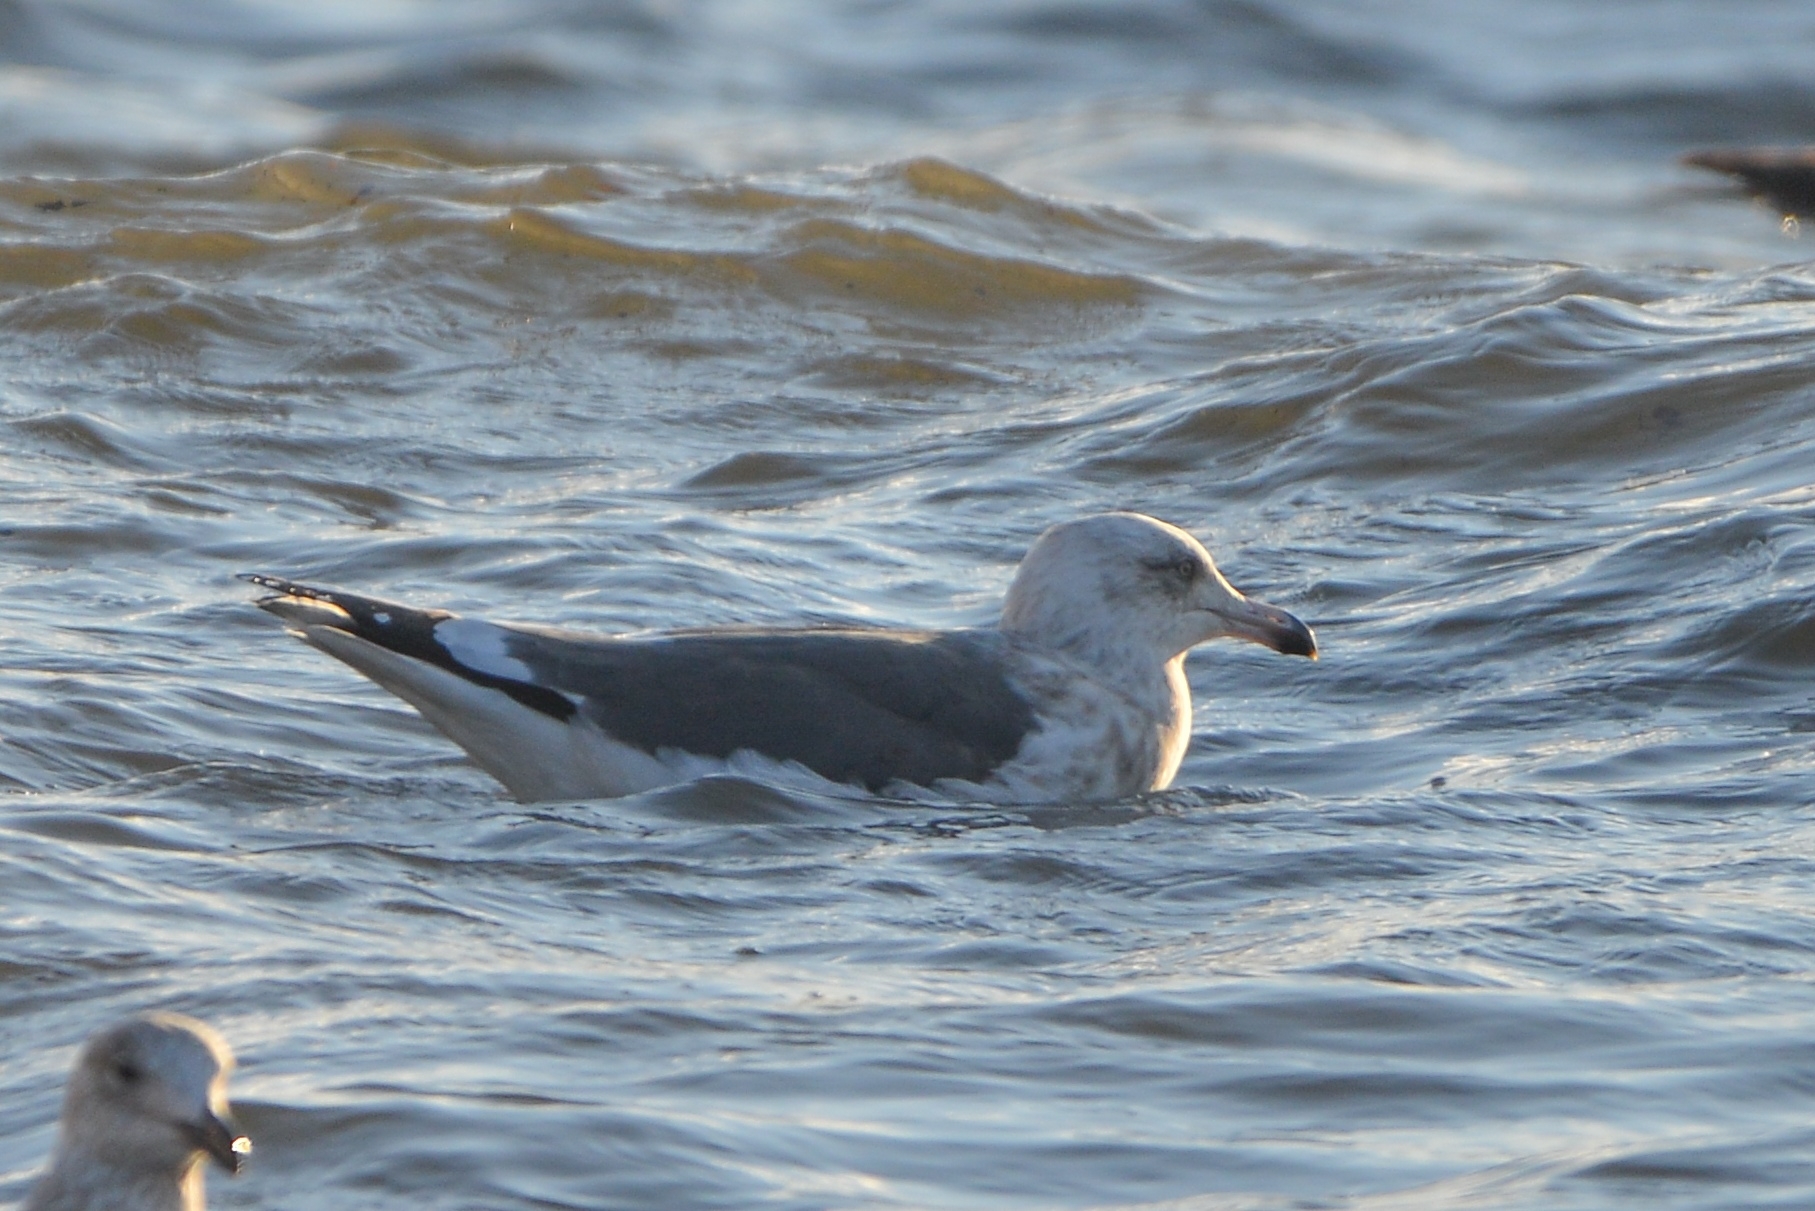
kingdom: Animalia
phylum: Chordata
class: Aves
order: Charadriiformes
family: Laridae
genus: Larus
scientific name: Larus schistisagus
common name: Slaty-backed gull
